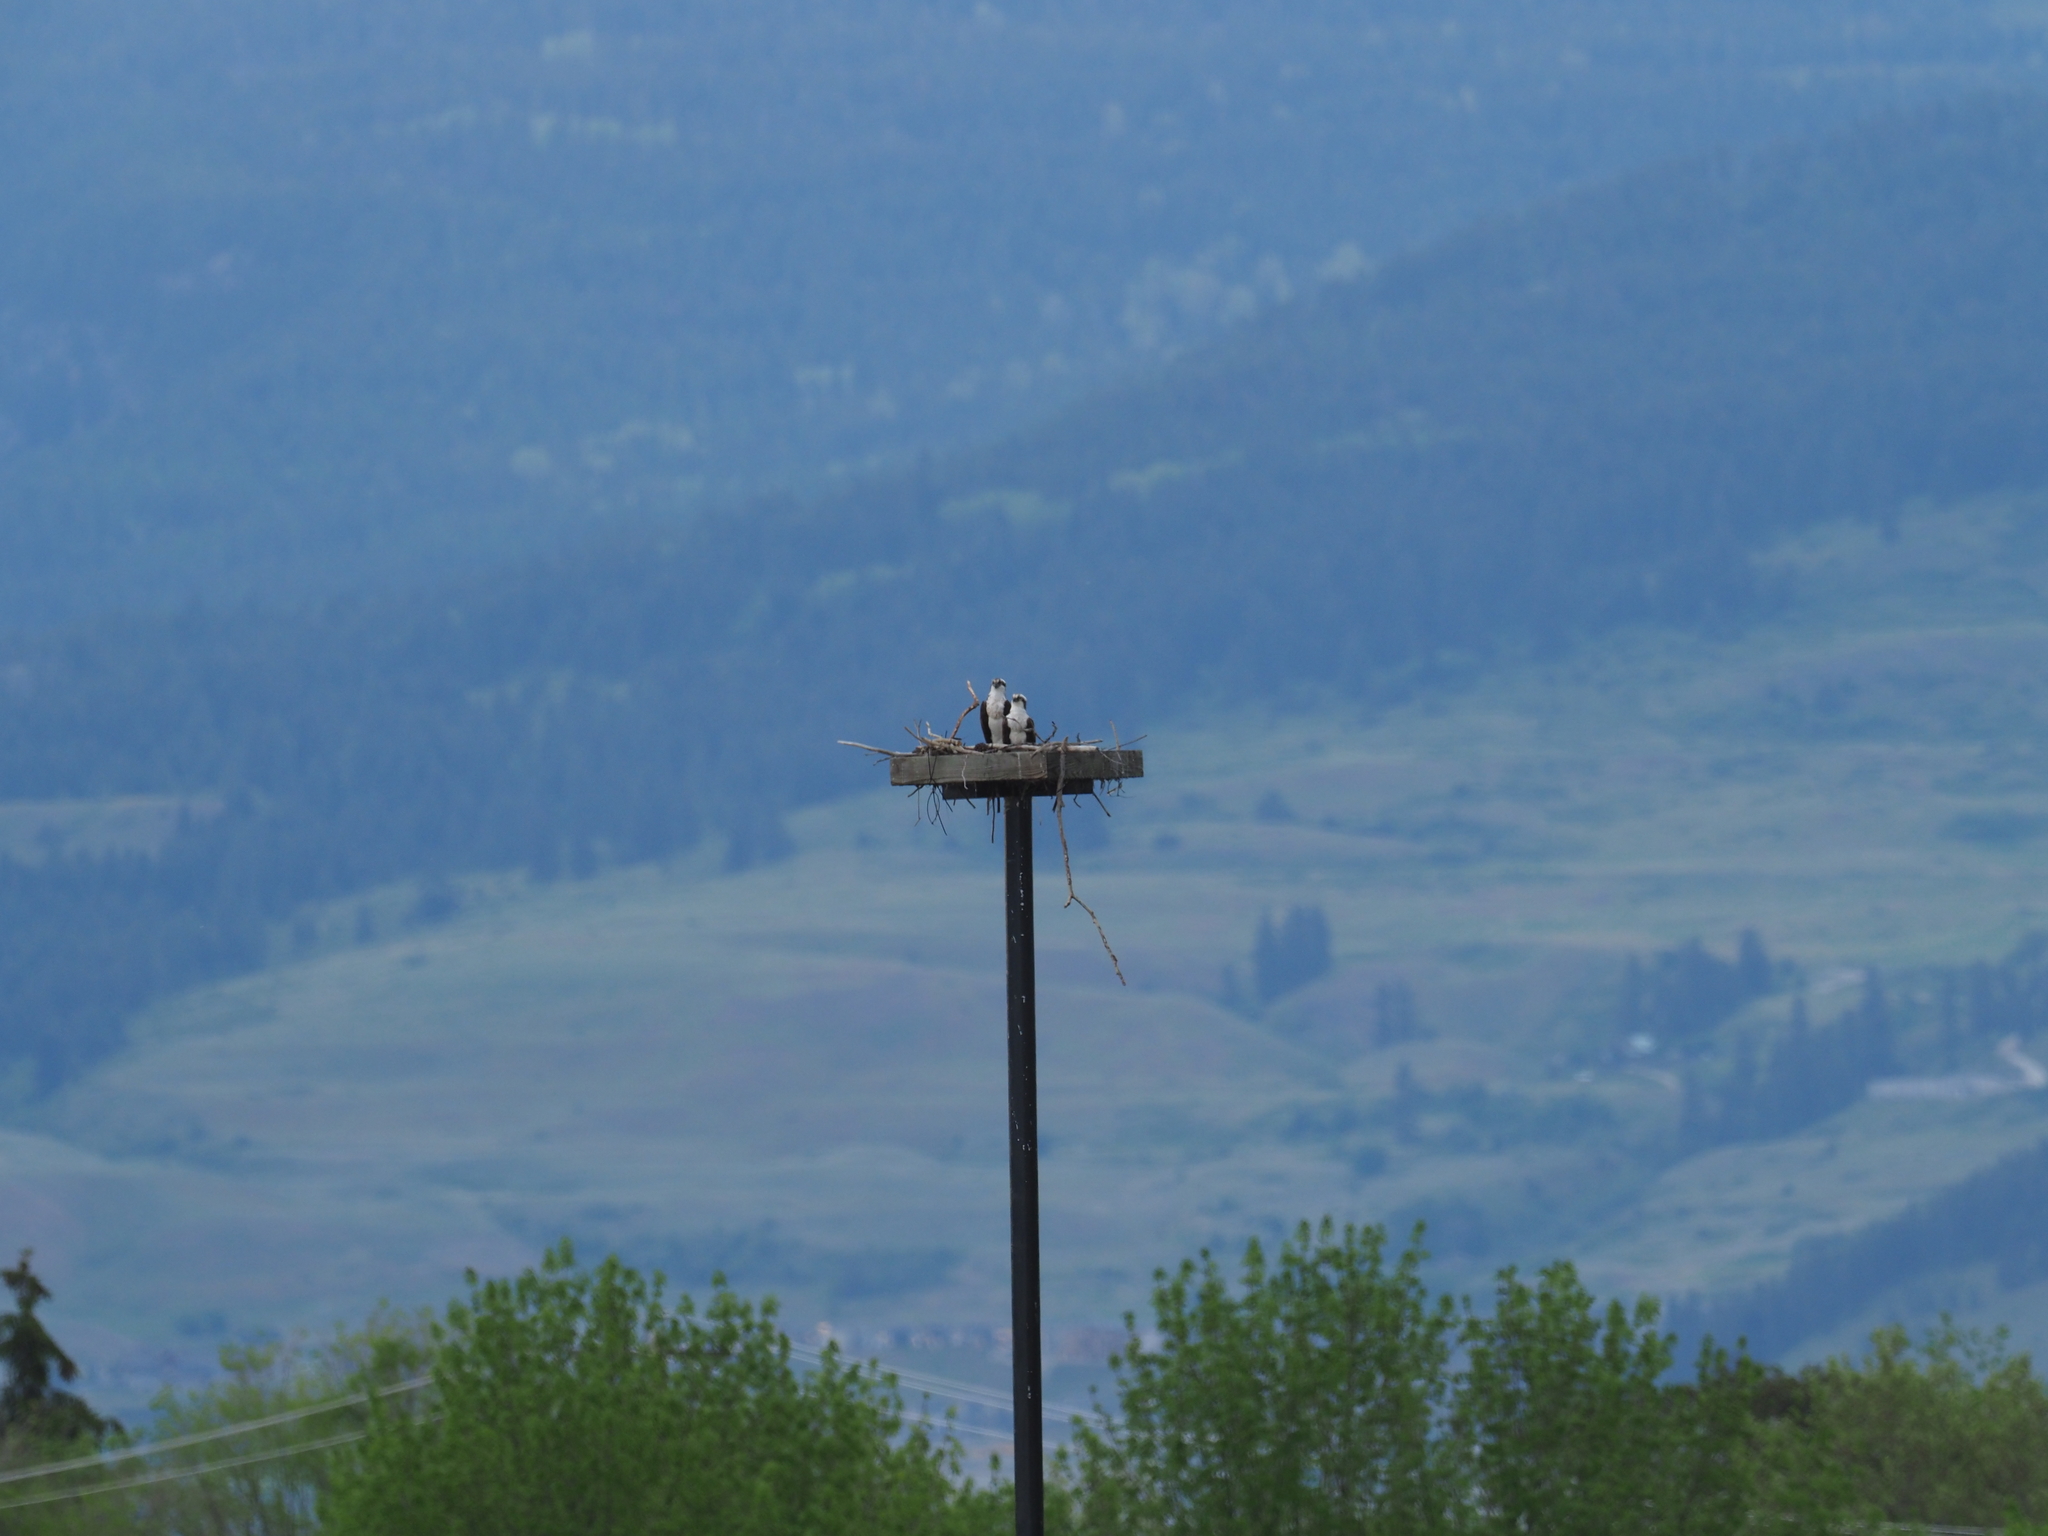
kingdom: Animalia
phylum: Chordata
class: Aves
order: Accipitriformes
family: Pandionidae
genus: Pandion
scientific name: Pandion haliaetus
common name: Osprey
